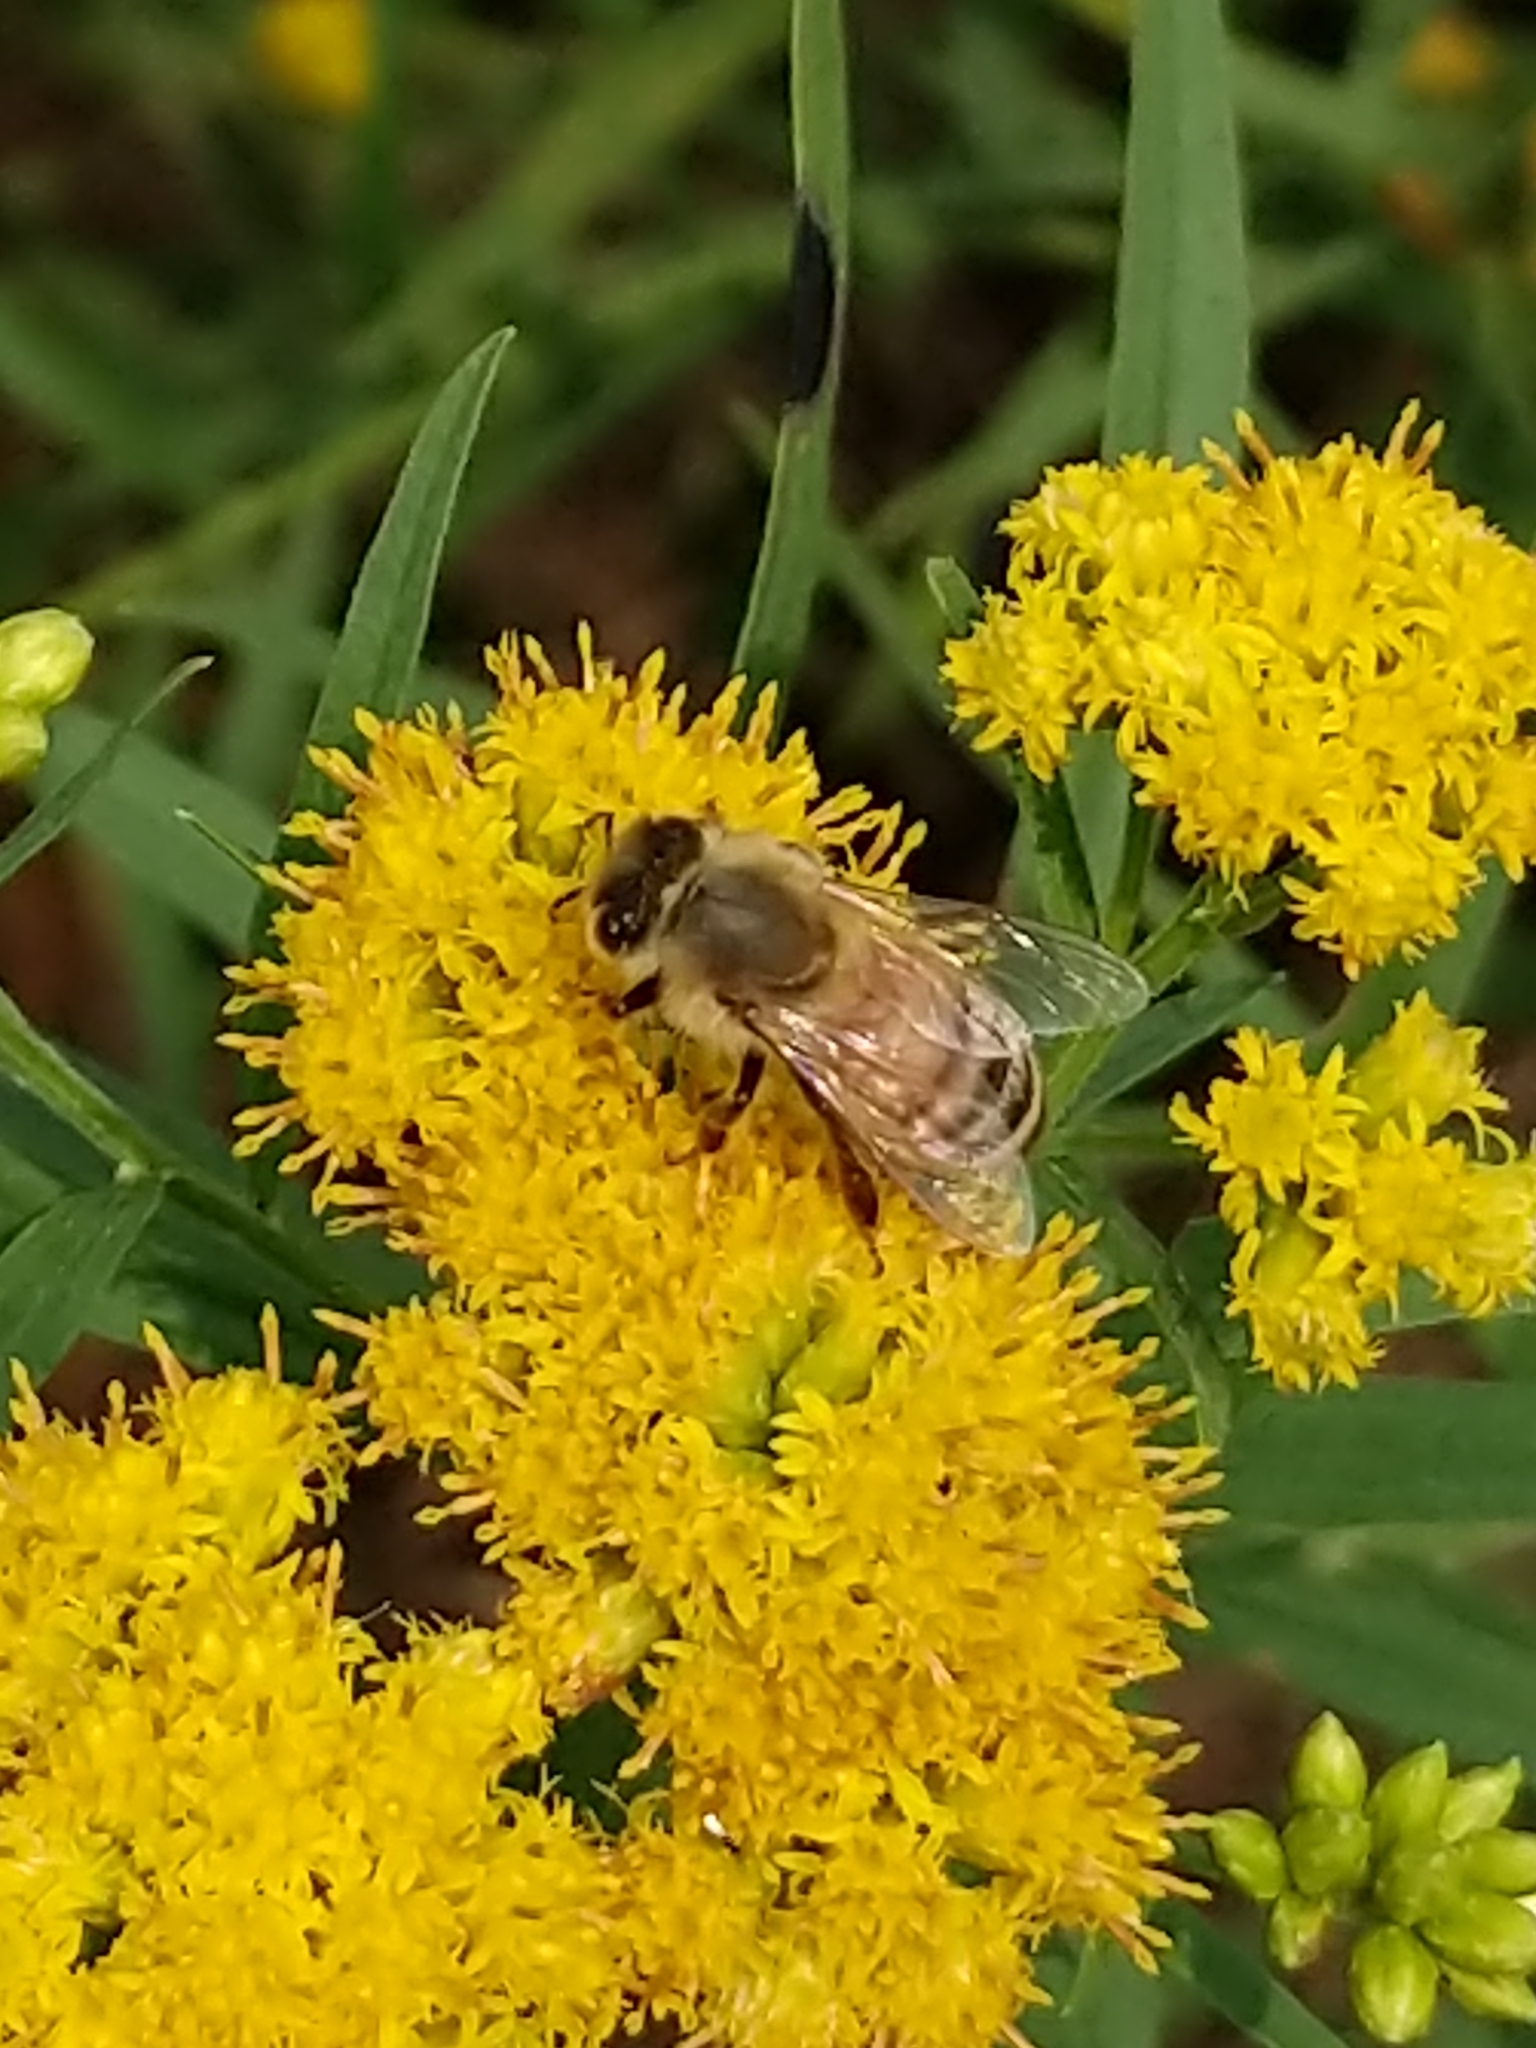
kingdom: Animalia
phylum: Arthropoda
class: Insecta
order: Hymenoptera
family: Apidae
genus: Apis
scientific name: Apis mellifera
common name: Honey bee
